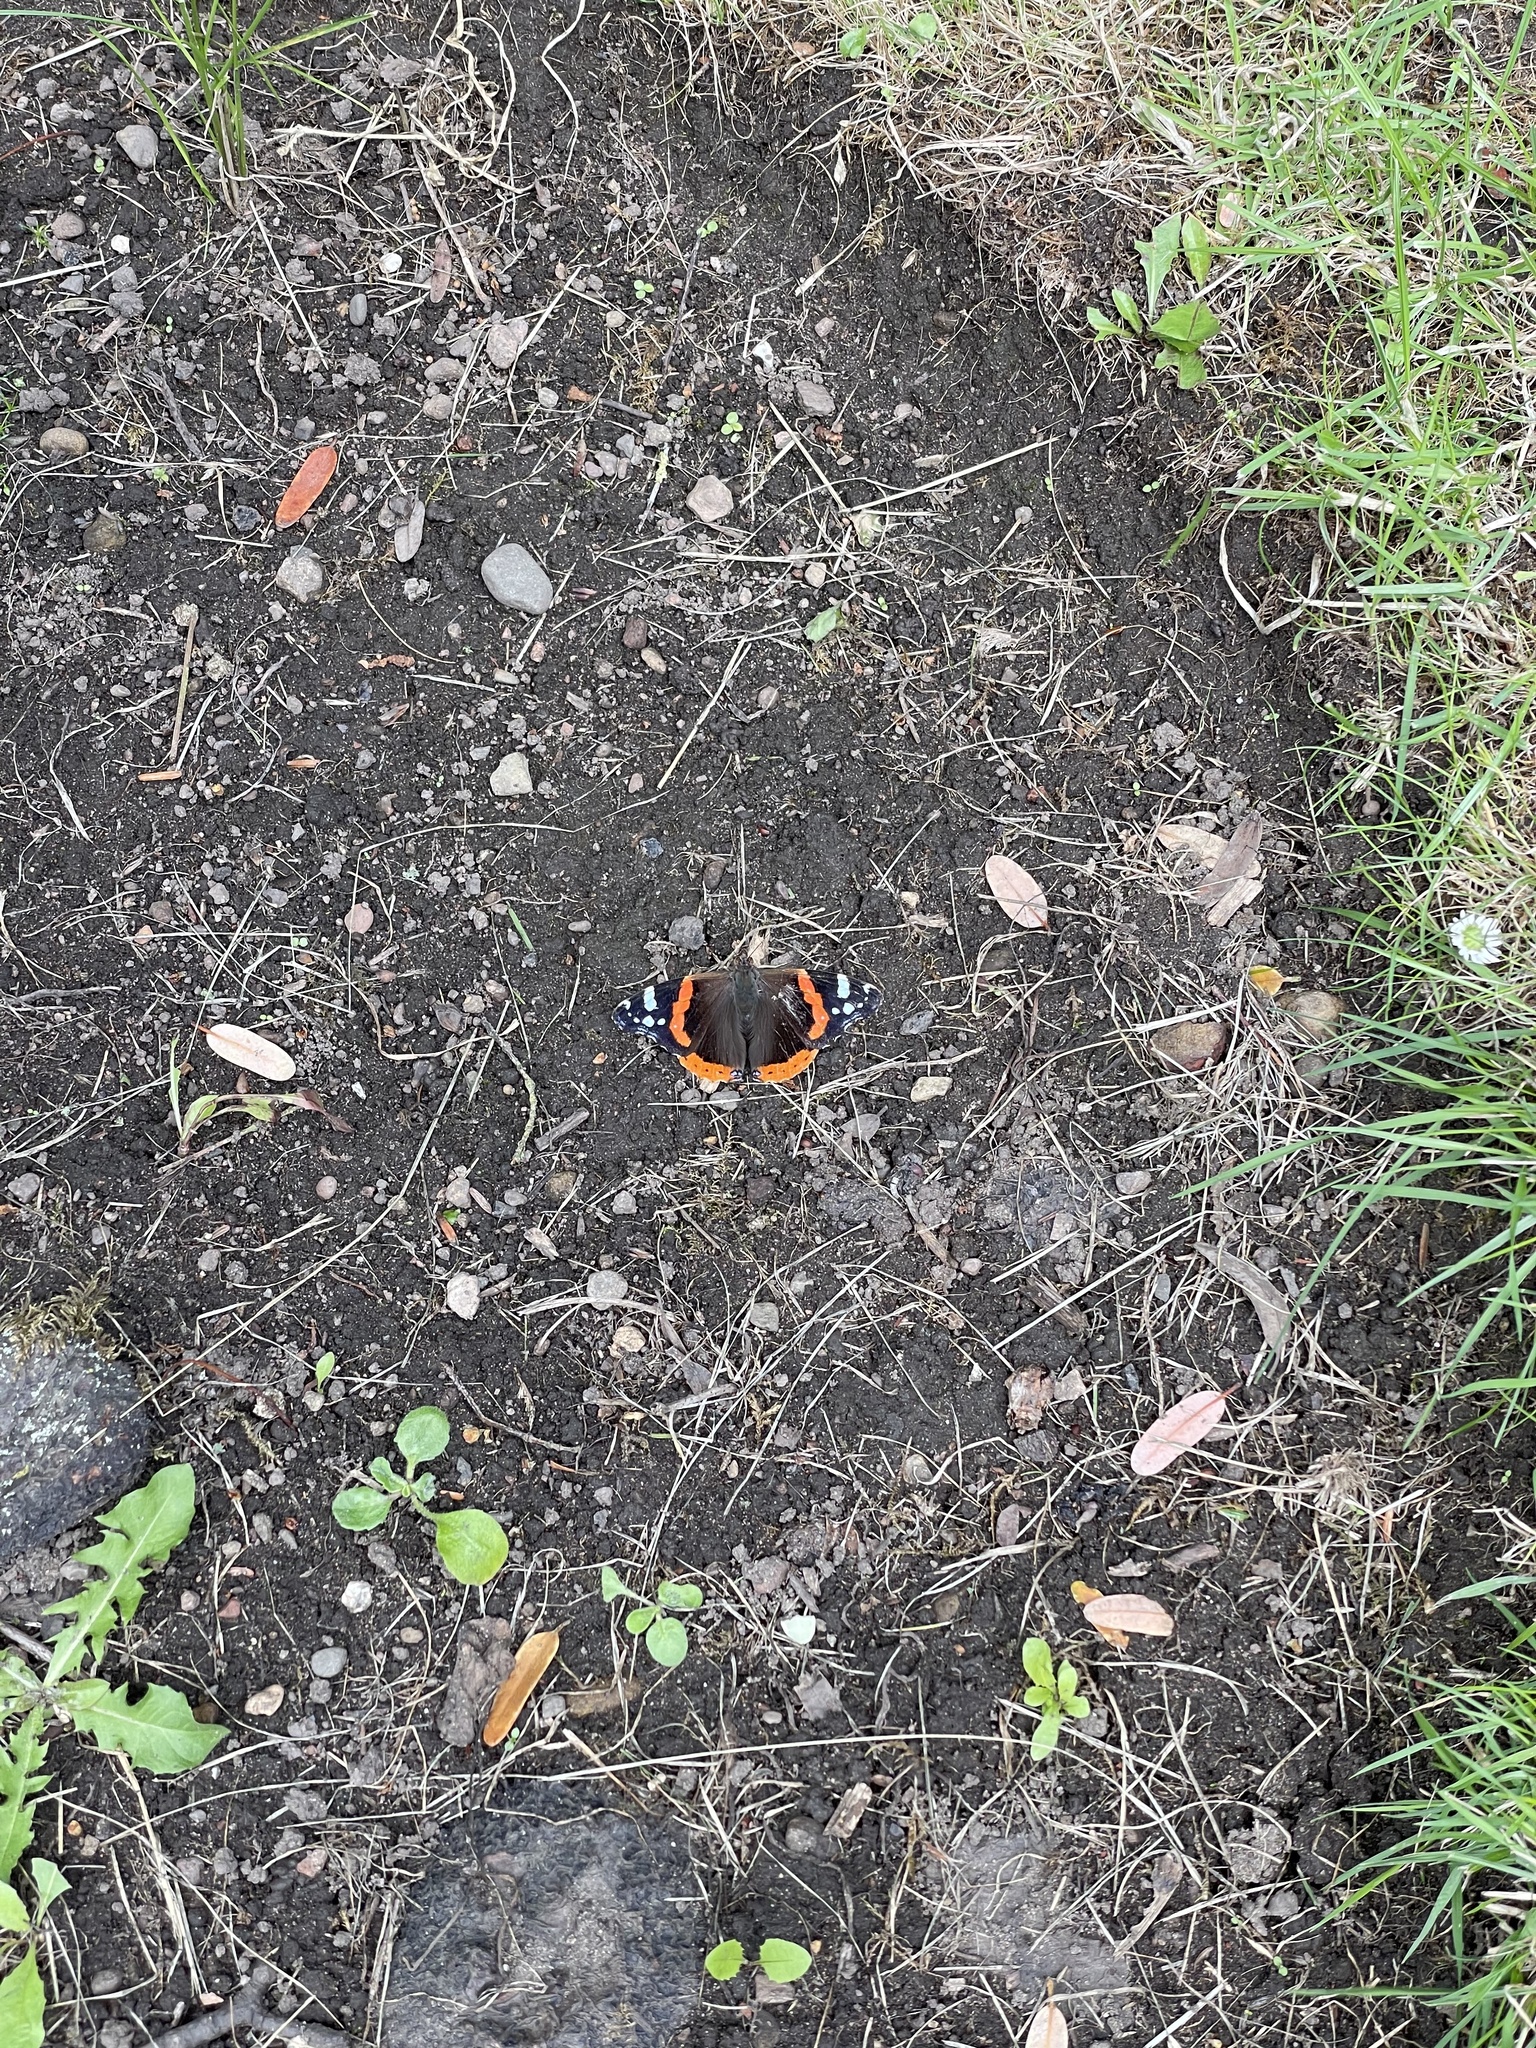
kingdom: Animalia
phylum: Arthropoda
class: Insecta
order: Lepidoptera
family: Nymphalidae
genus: Vanessa
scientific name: Vanessa atalanta
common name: Red admiral
